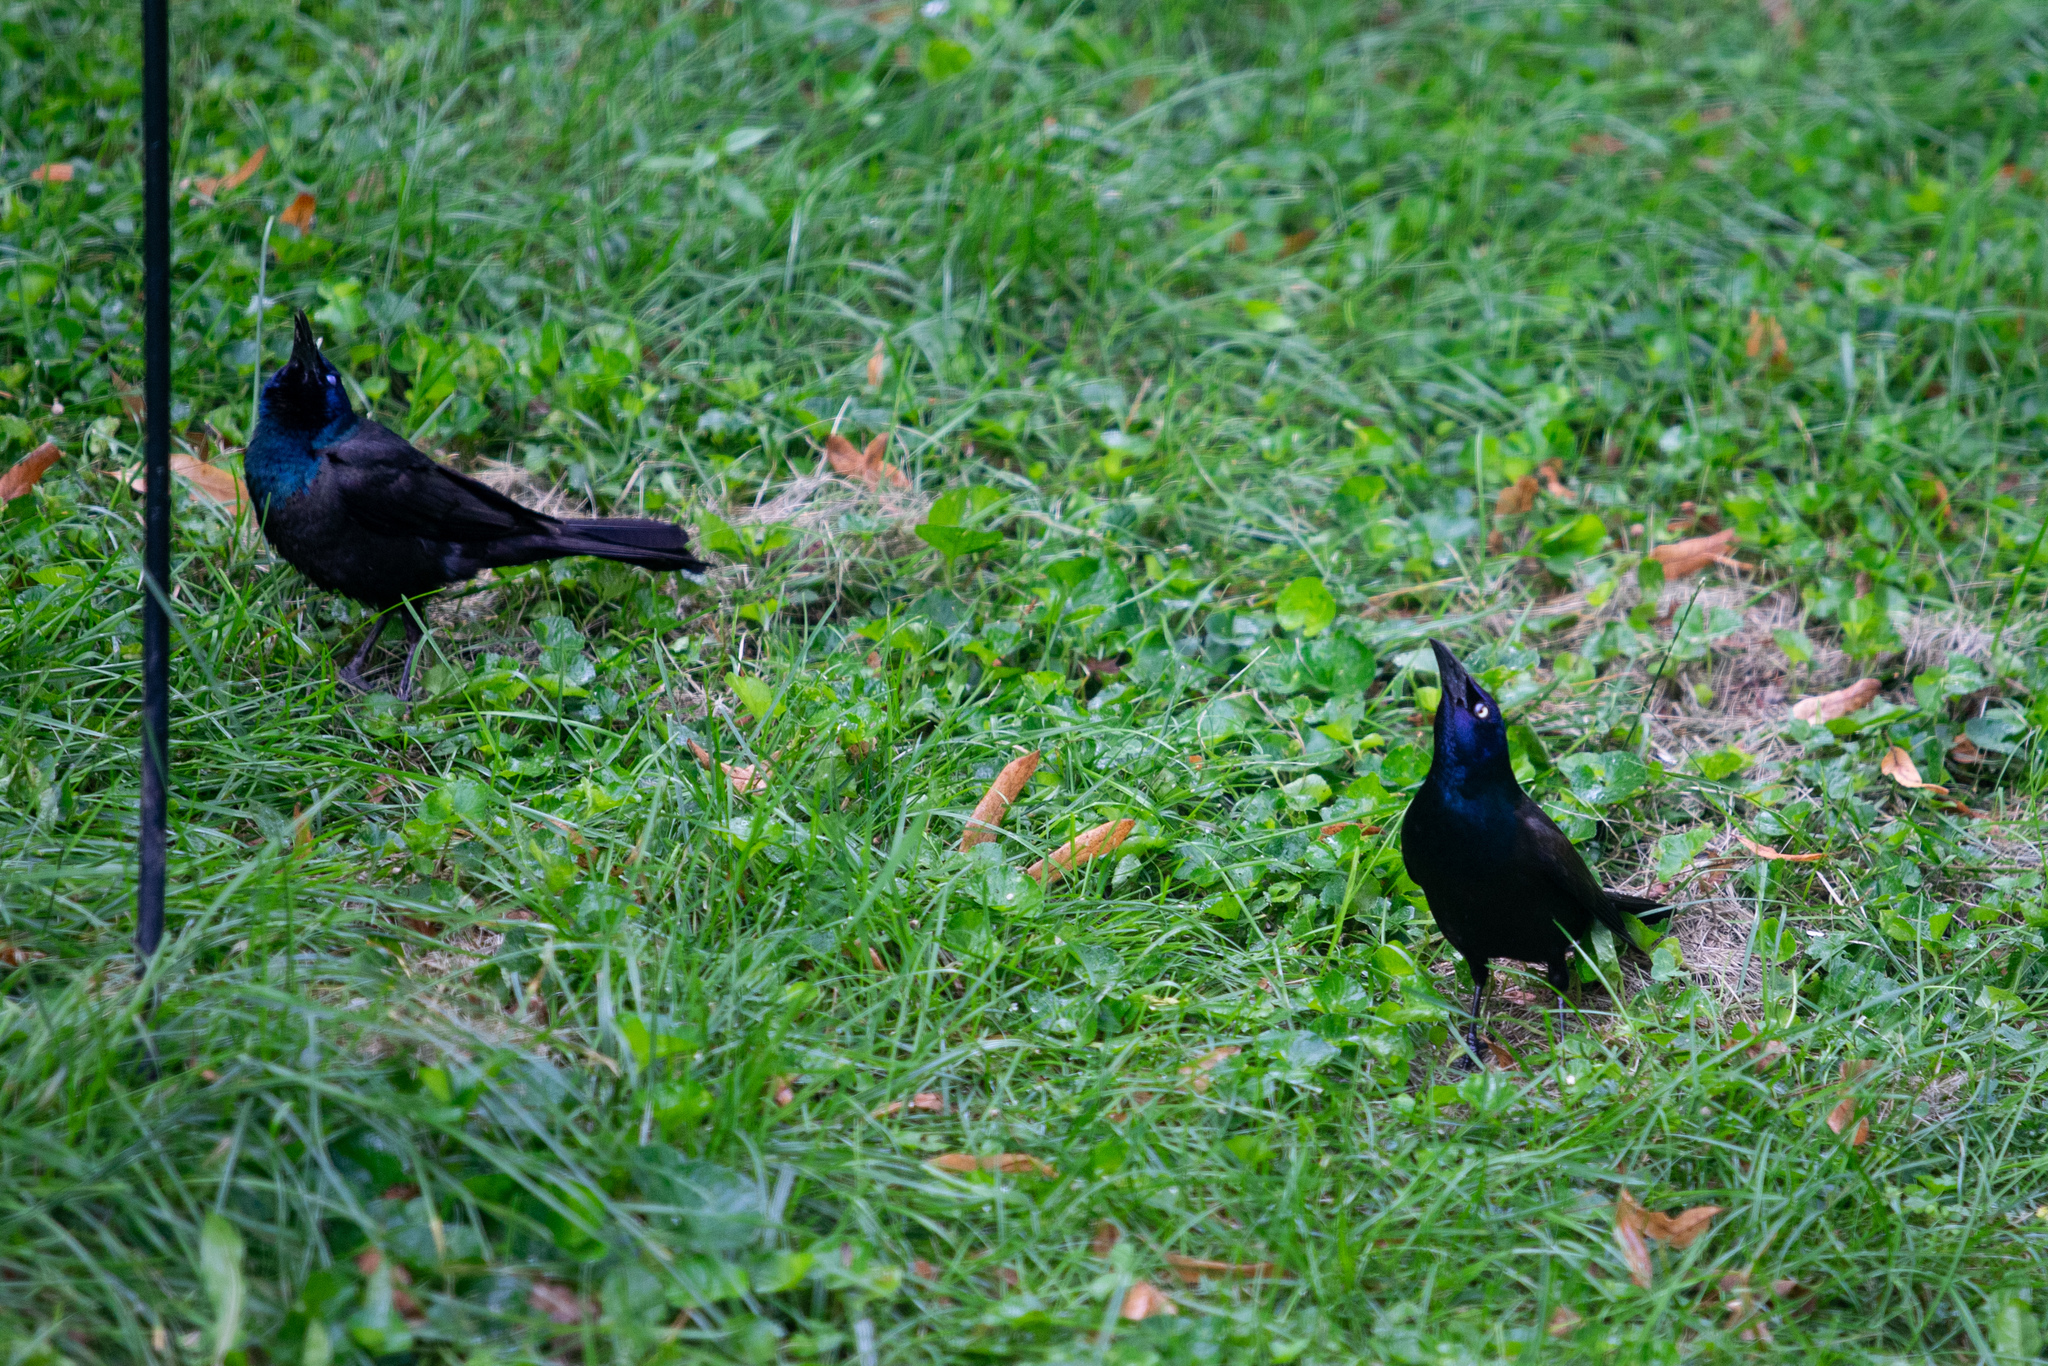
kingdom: Animalia
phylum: Chordata
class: Aves
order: Passeriformes
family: Icteridae
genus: Quiscalus
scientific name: Quiscalus quiscula
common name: Common grackle
